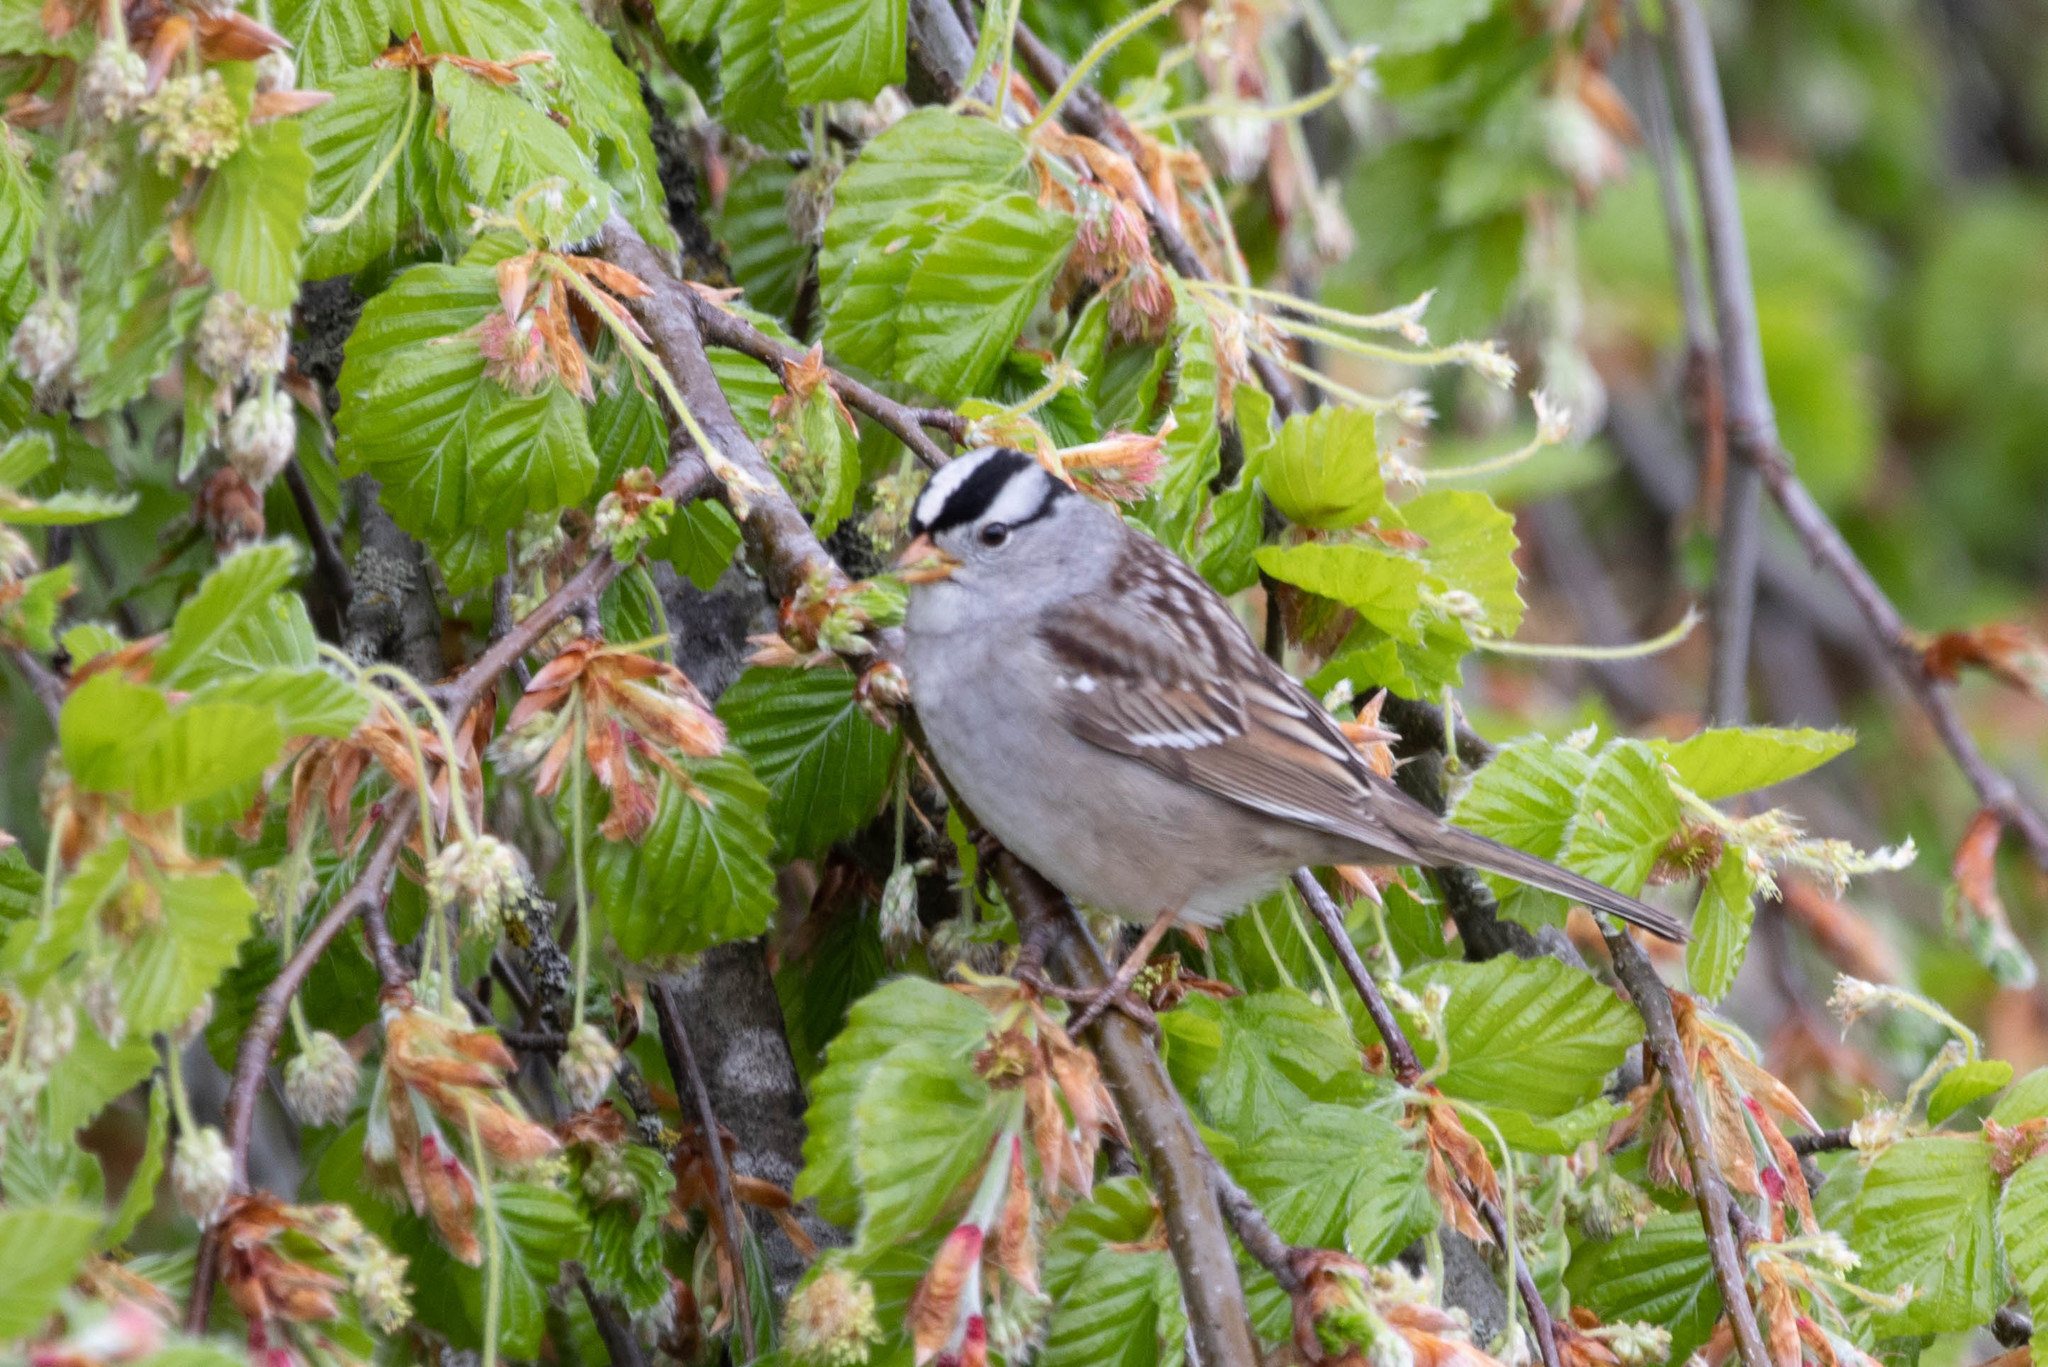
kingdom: Animalia
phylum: Chordata
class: Aves
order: Passeriformes
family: Passerellidae
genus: Zonotrichia
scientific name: Zonotrichia leucophrys
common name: White-crowned sparrow
